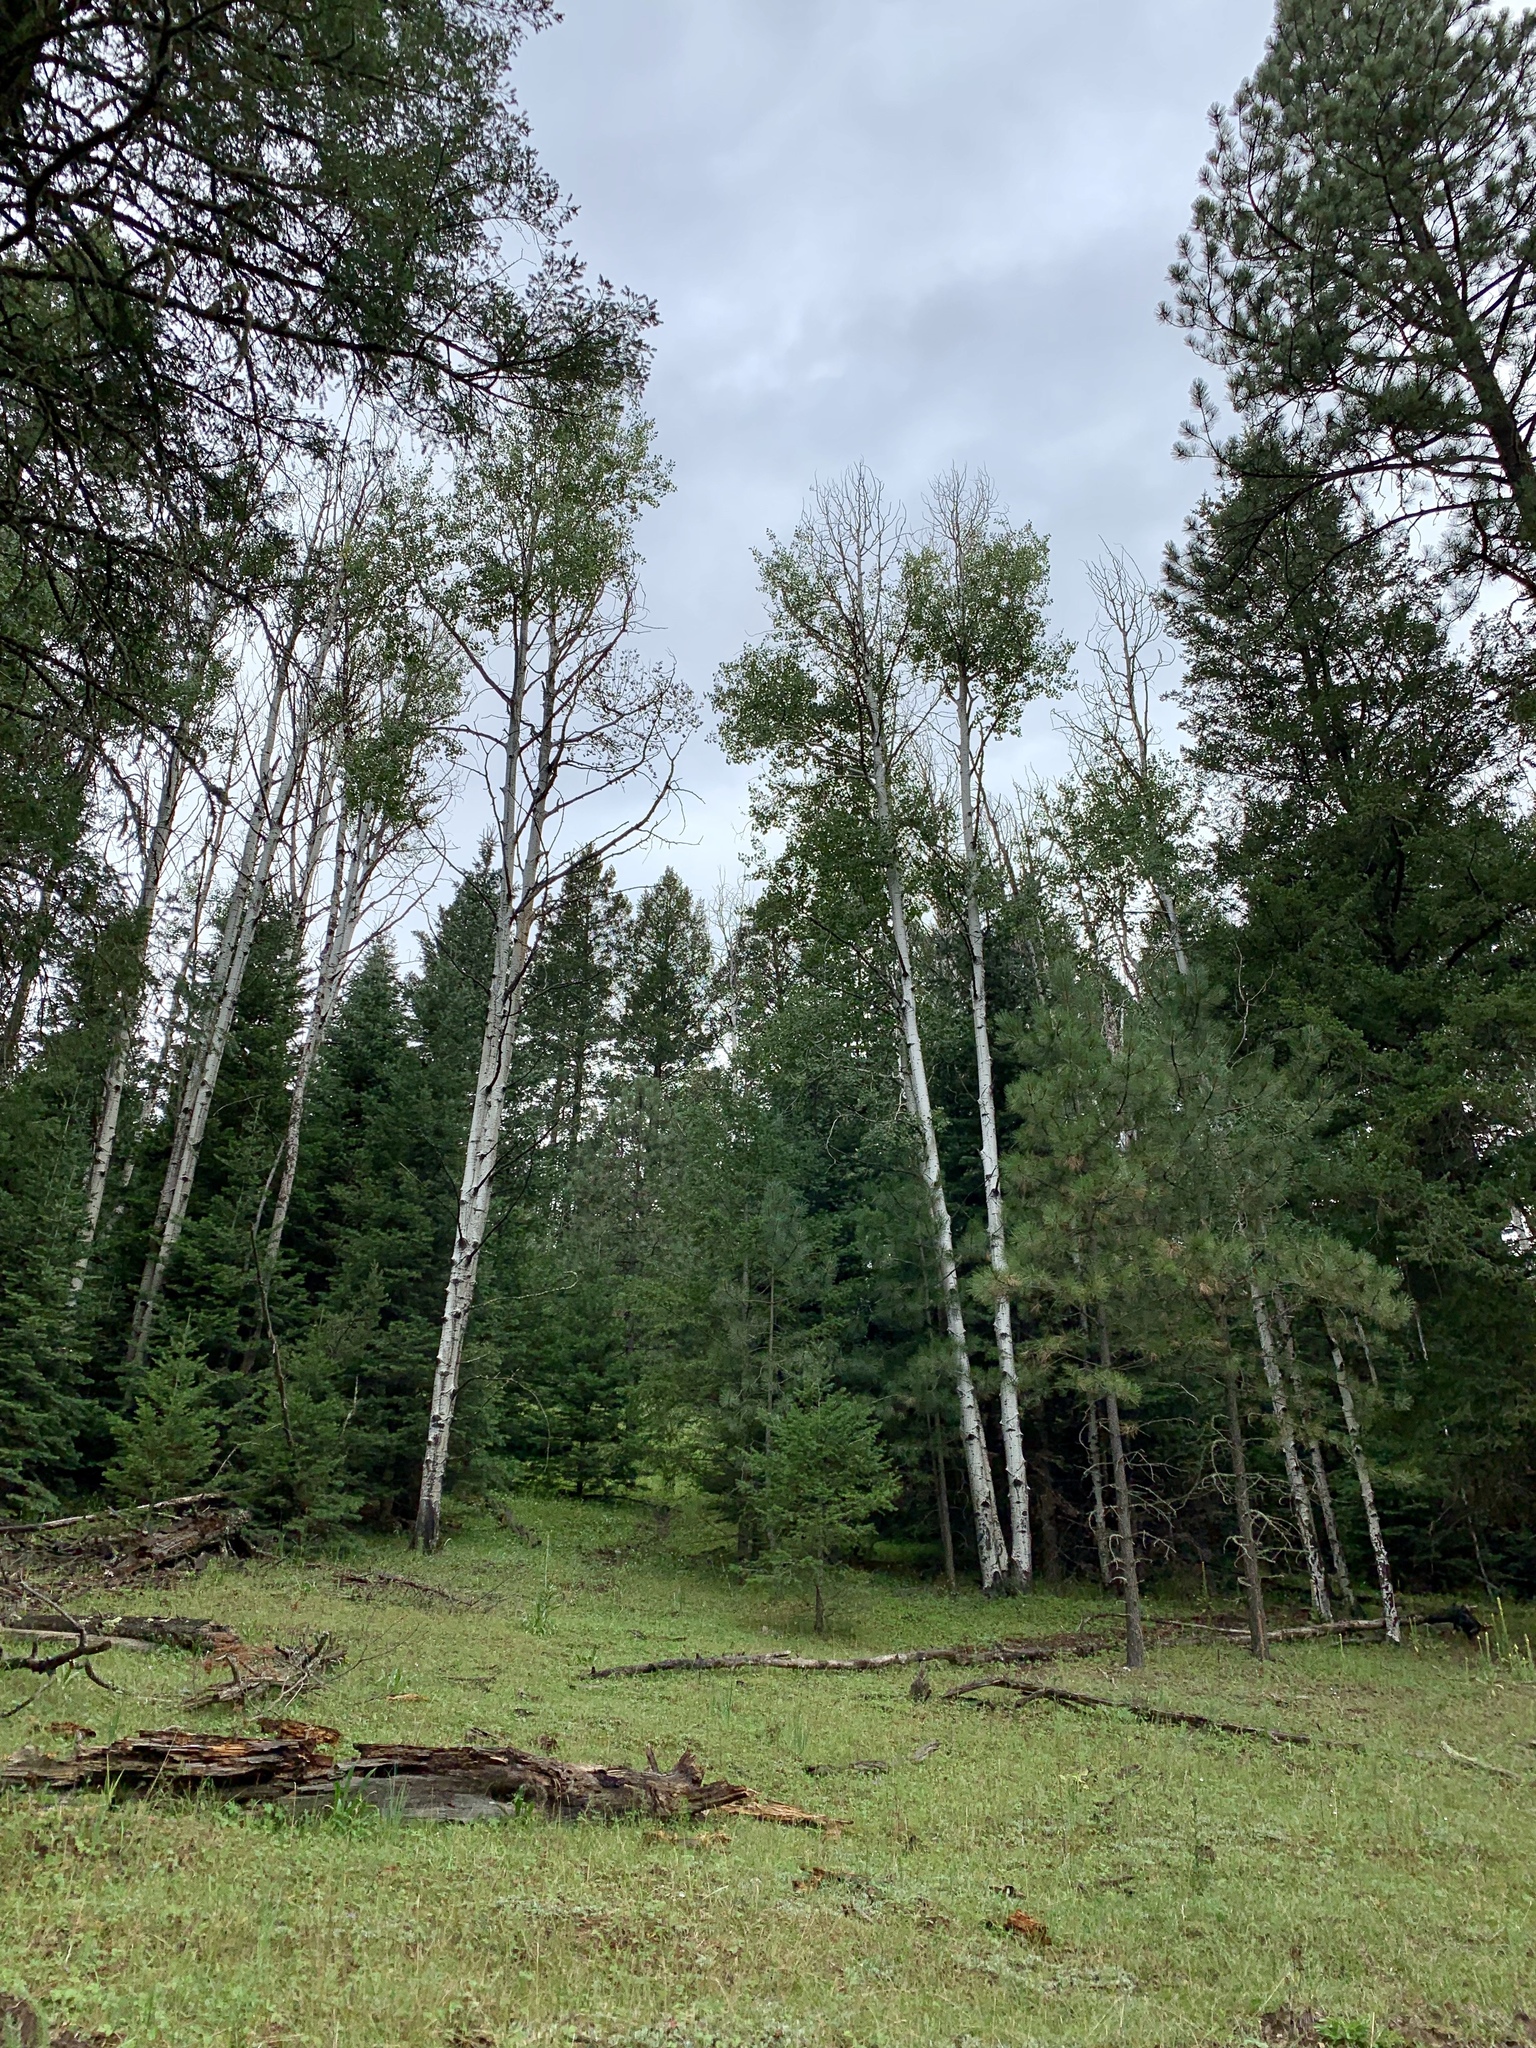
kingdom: Plantae
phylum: Tracheophyta
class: Magnoliopsida
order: Malpighiales
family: Salicaceae
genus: Populus
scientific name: Populus tremuloides
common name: Quaking aspen
